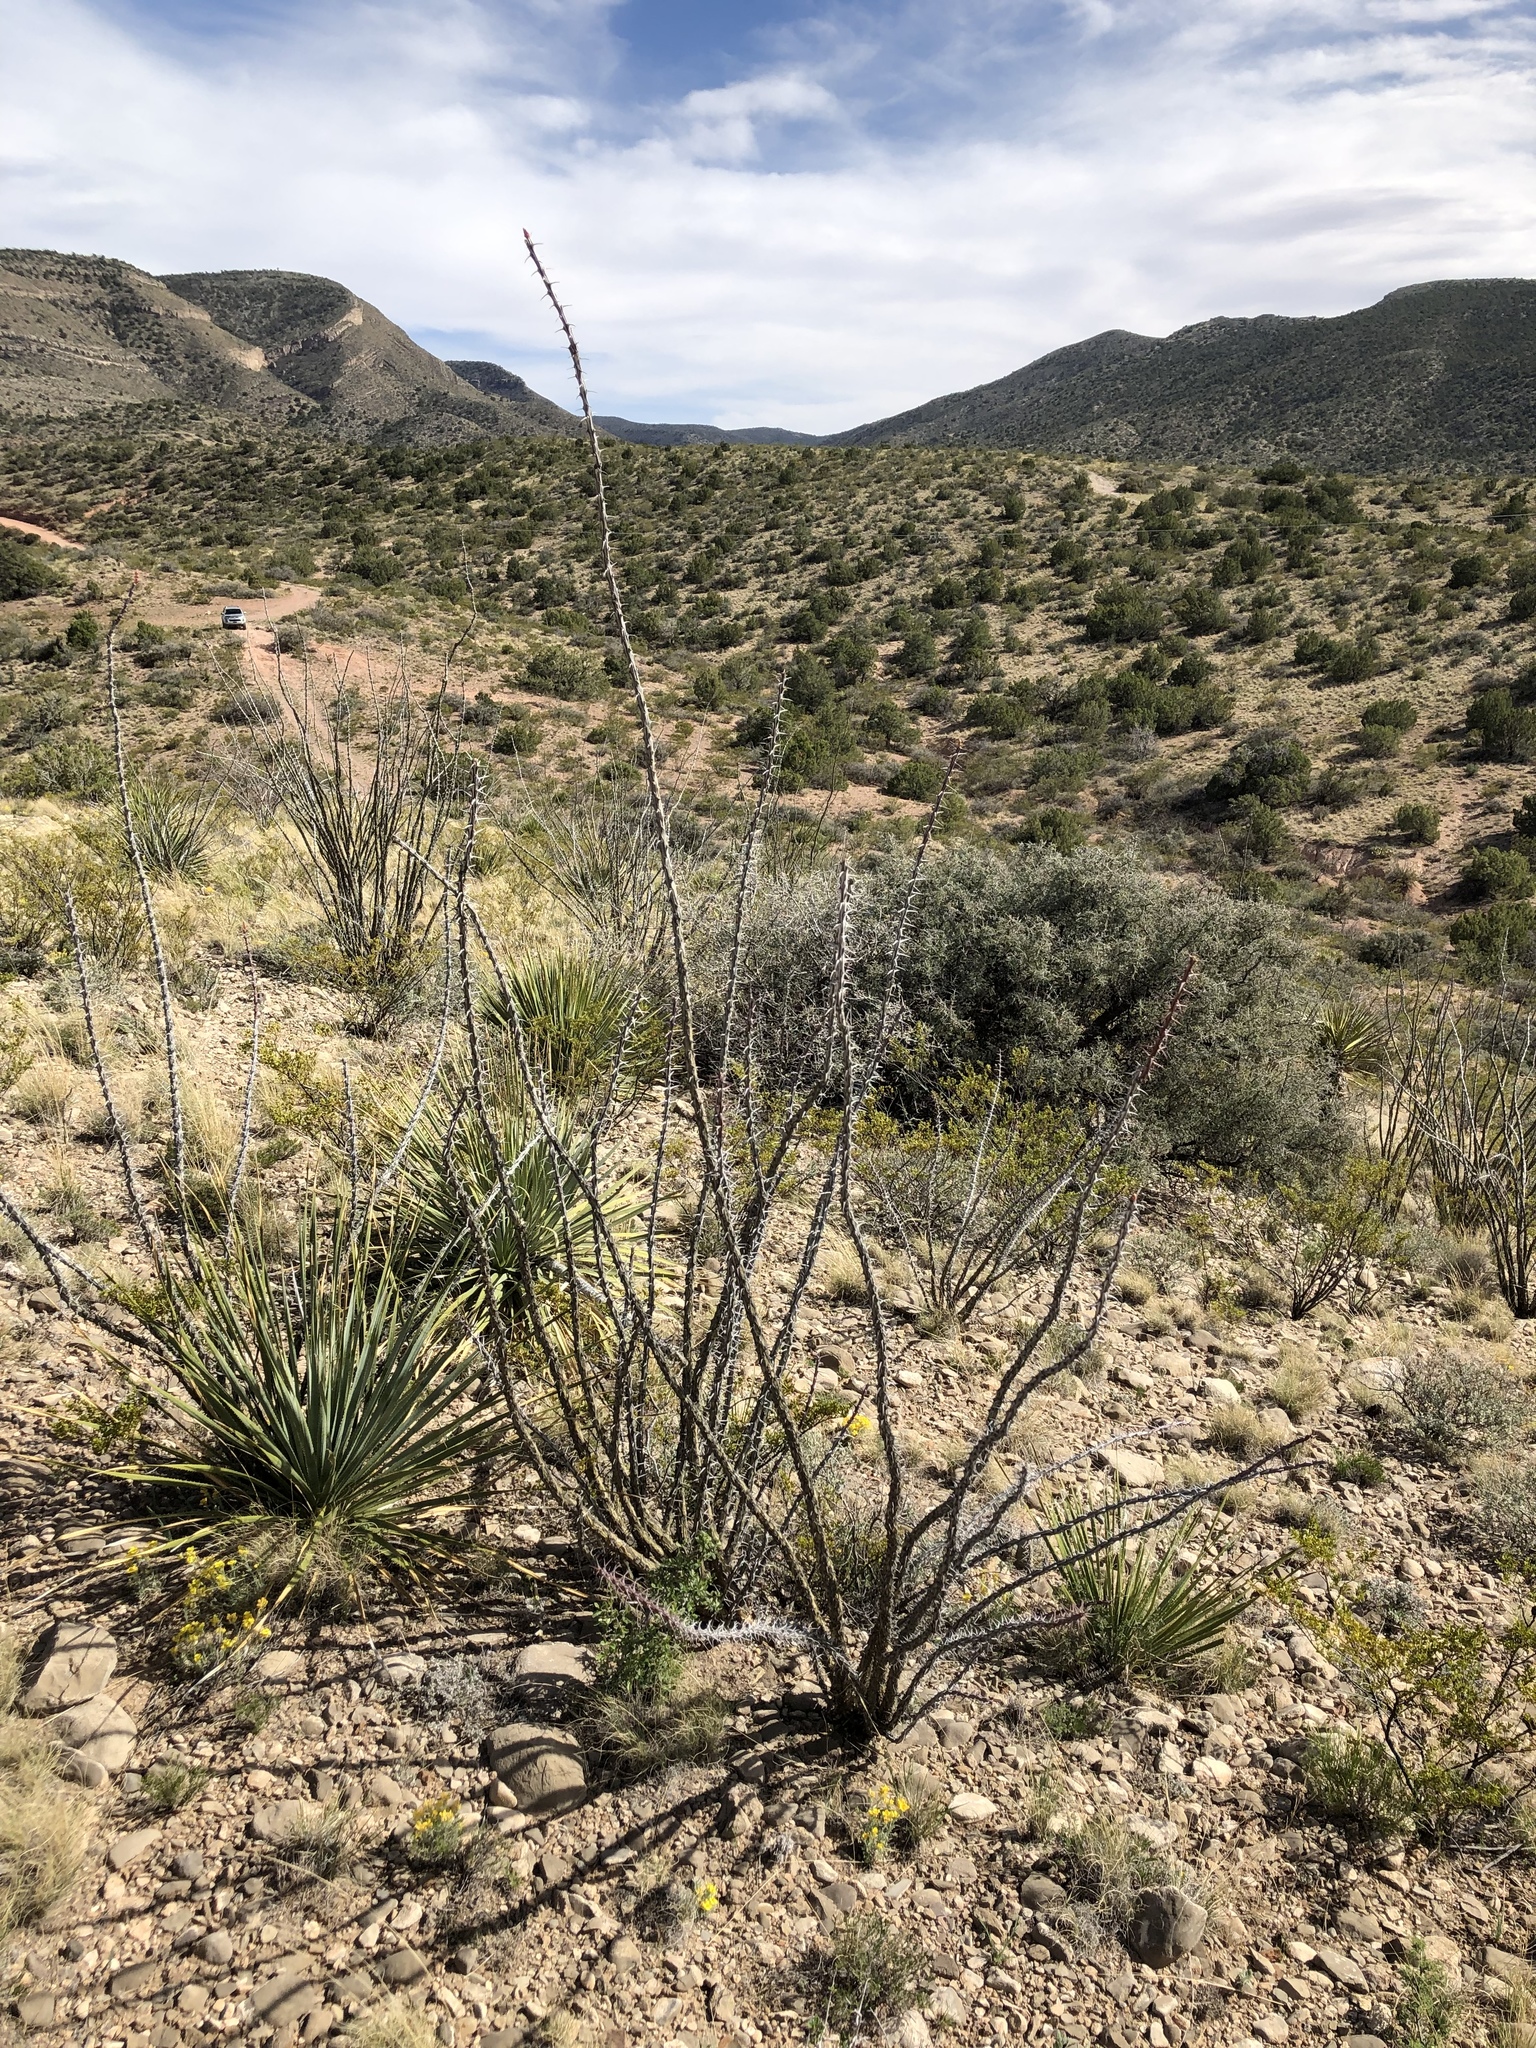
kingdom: Plantae
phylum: Tracheophyta
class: Magnoliopsida
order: Ericales
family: Fouquieriaceae
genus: Fouquieria
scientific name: Fouquieria splendens
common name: Vine-cactus
